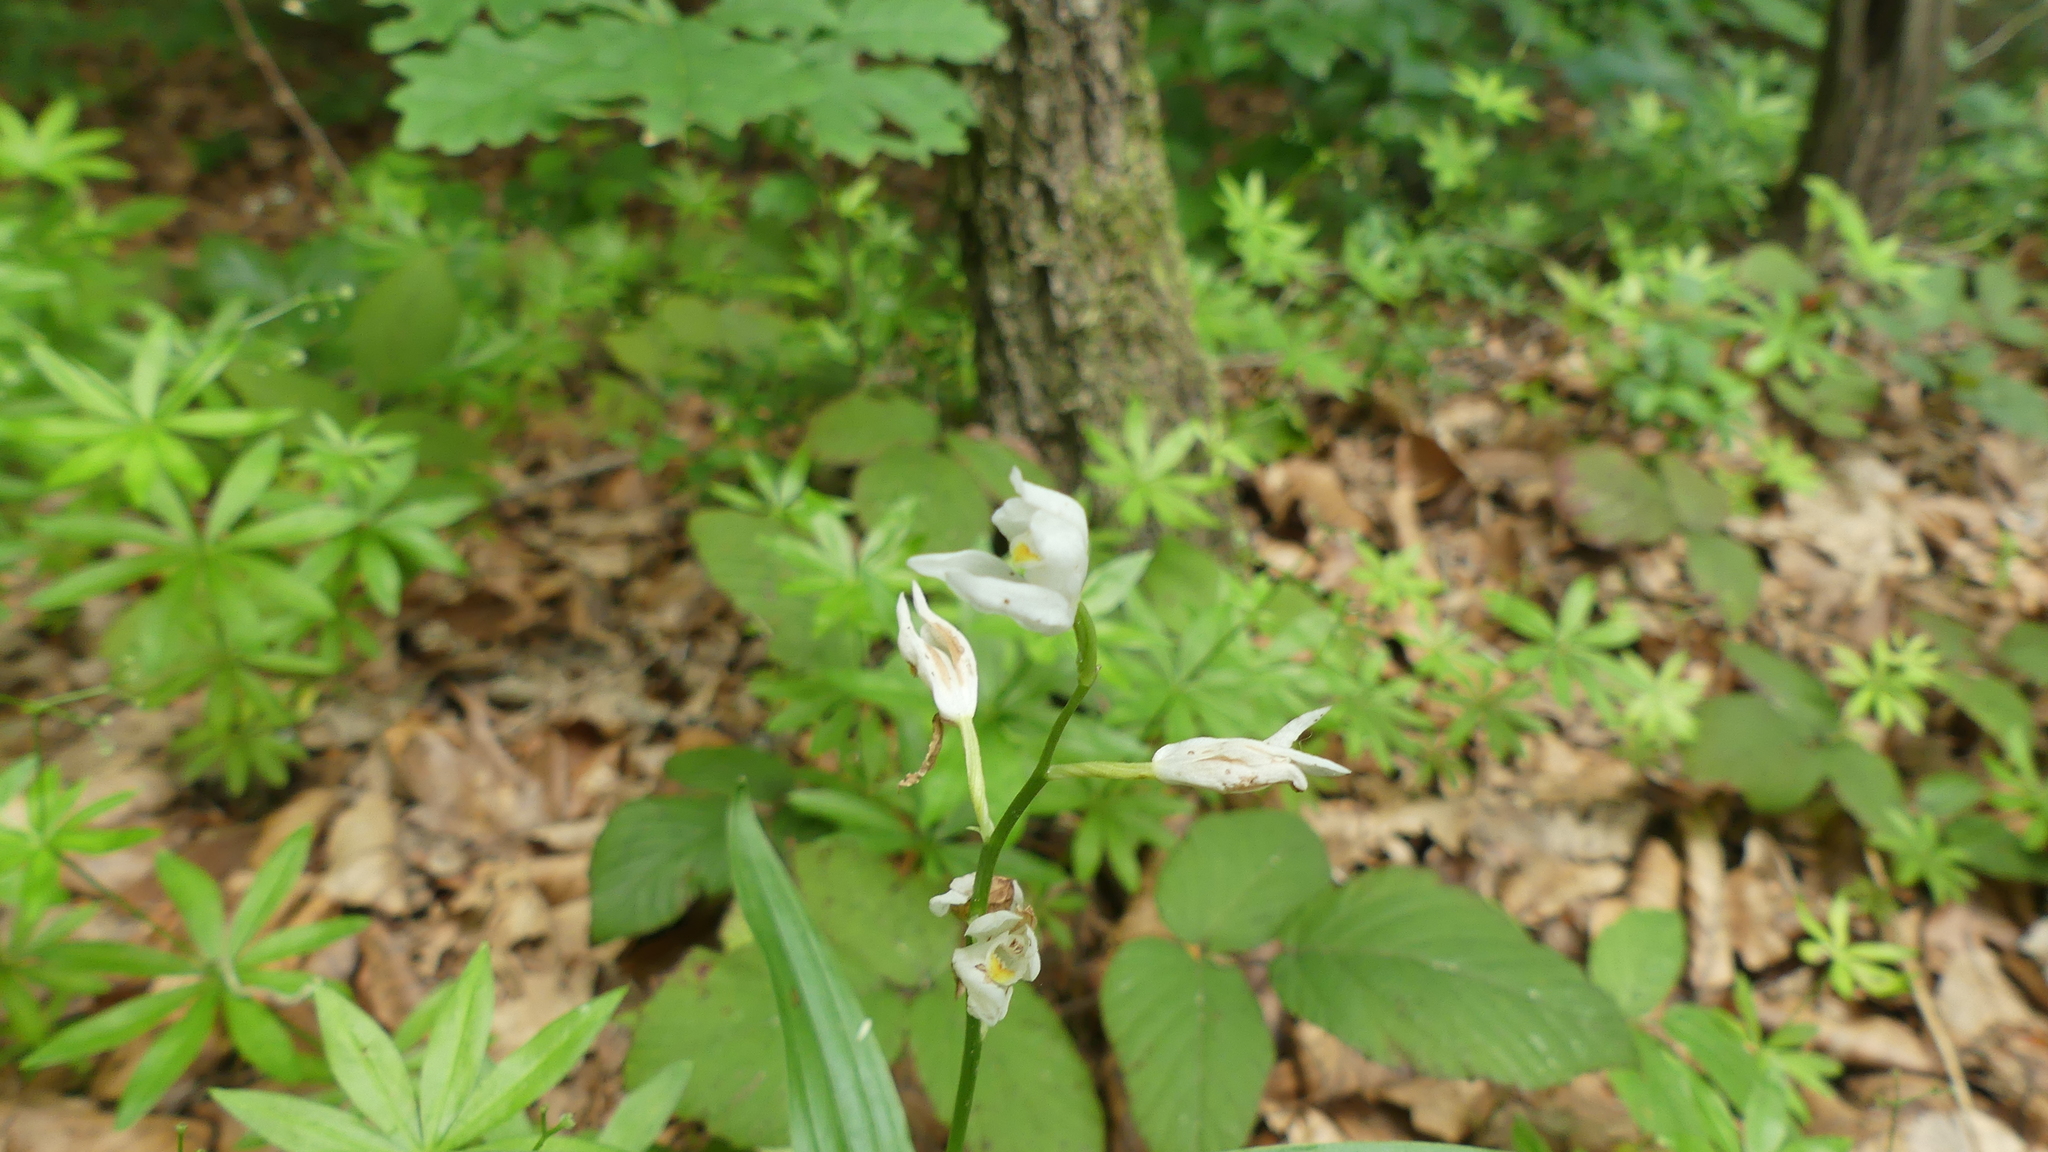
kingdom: Plantae
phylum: Tracheophyta
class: Liliopsida
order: Asparagales
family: Orchidaceae
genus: Cephalanthera
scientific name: Cephalanthera longifolia
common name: Narrow-leaved helleborine
